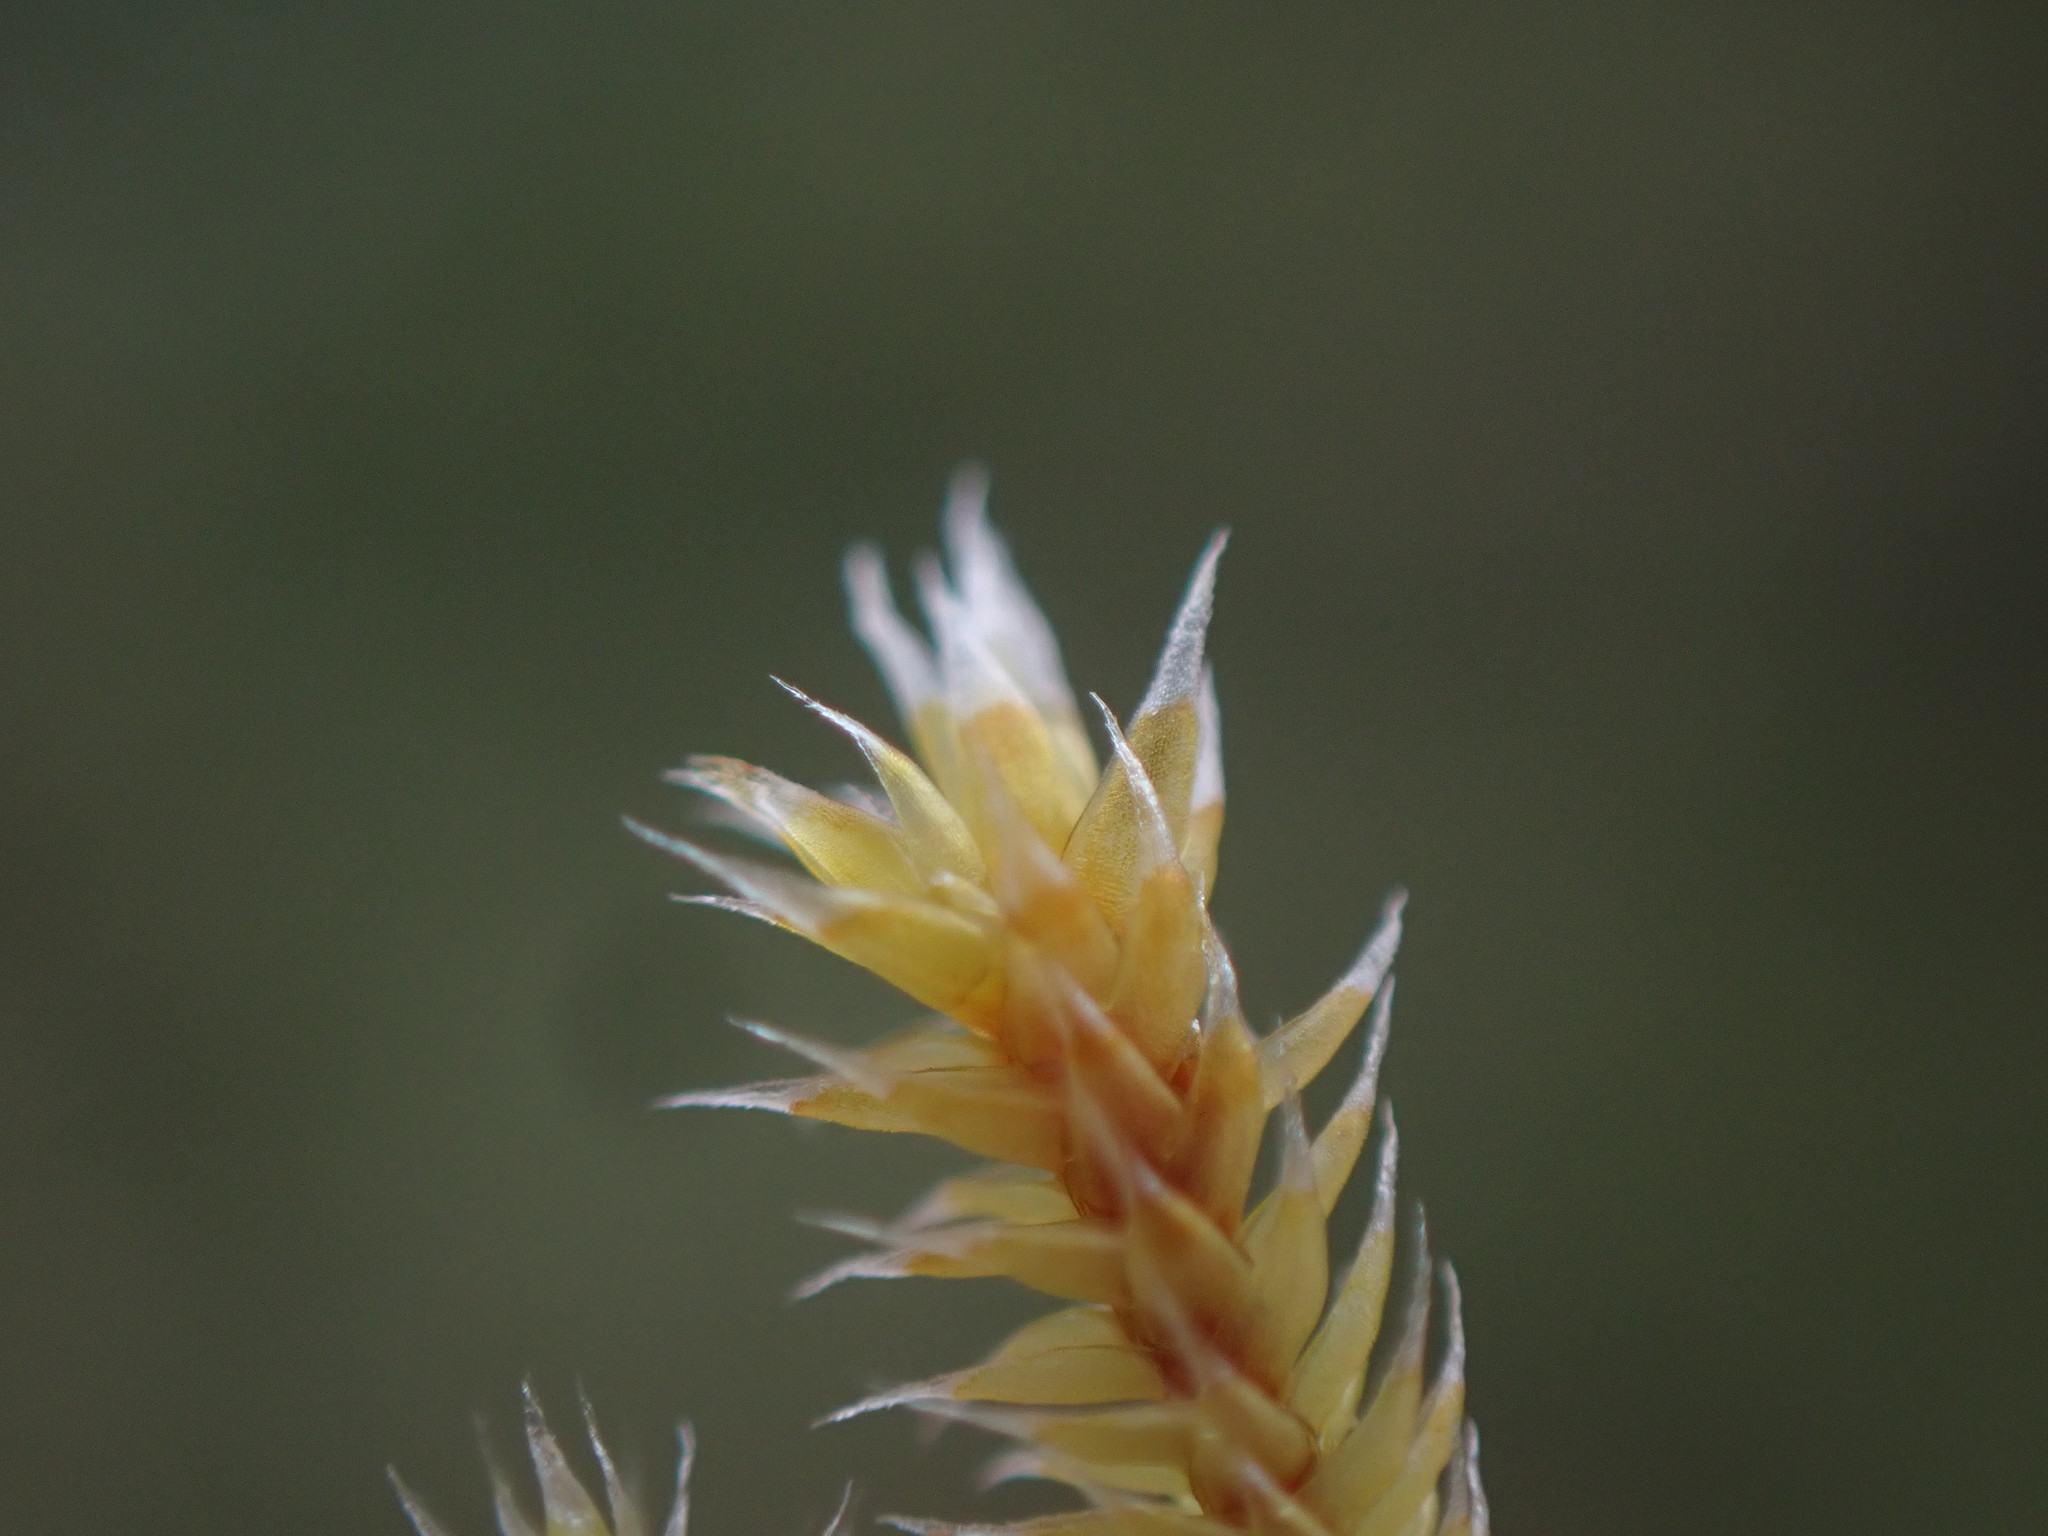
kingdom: Plantae
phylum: Bryophyta
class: Bryopsida
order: Hedwigiales
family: Hedwigiaceae
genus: Pseudobraunia
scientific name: Pseudobraunia californica
